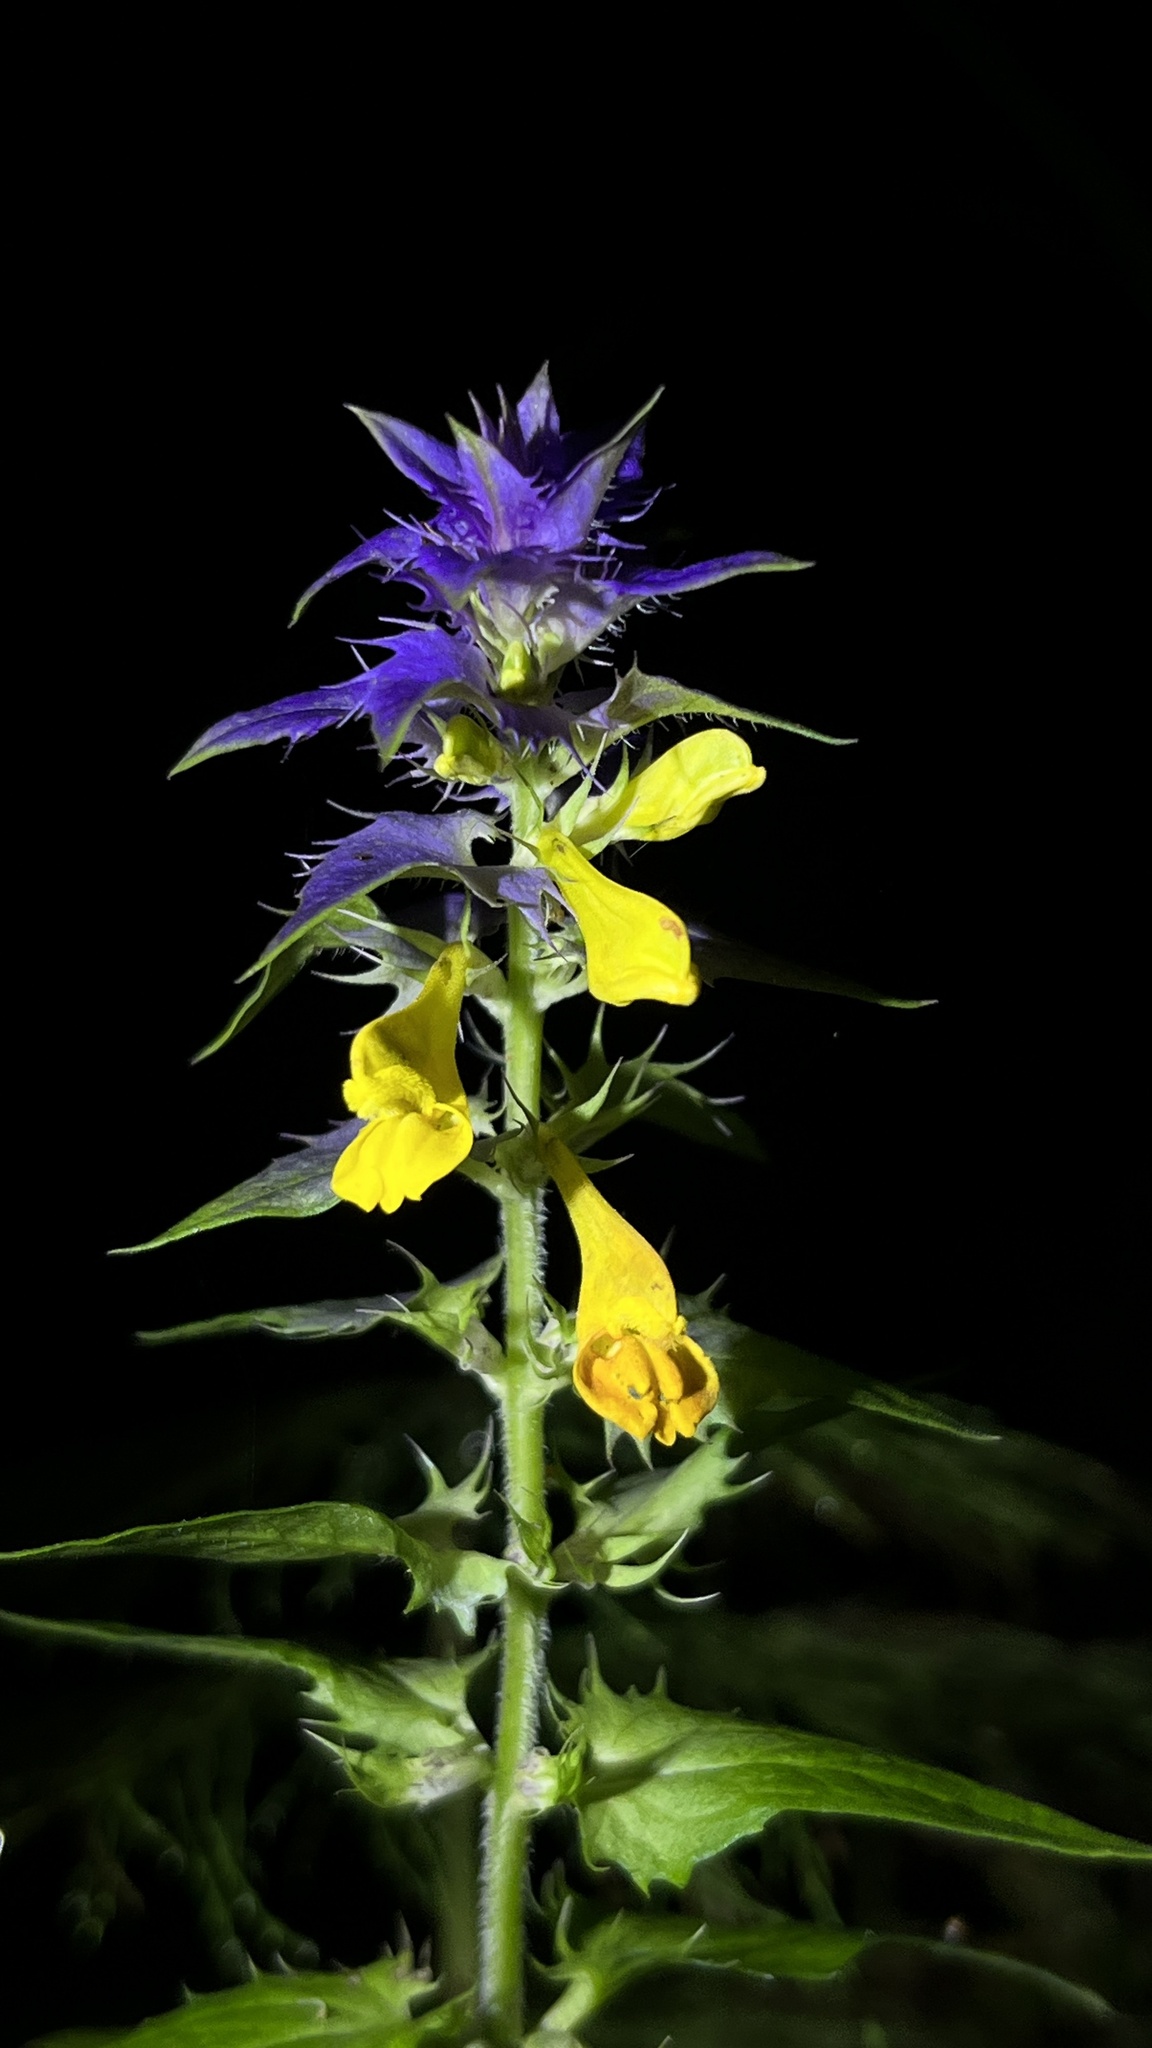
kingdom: Plantae
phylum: Tracheophyta
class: Magnoliopsida
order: Lamiales
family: Orobanchaceae
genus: Melampyrum
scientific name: Melampyrum nemorosum
